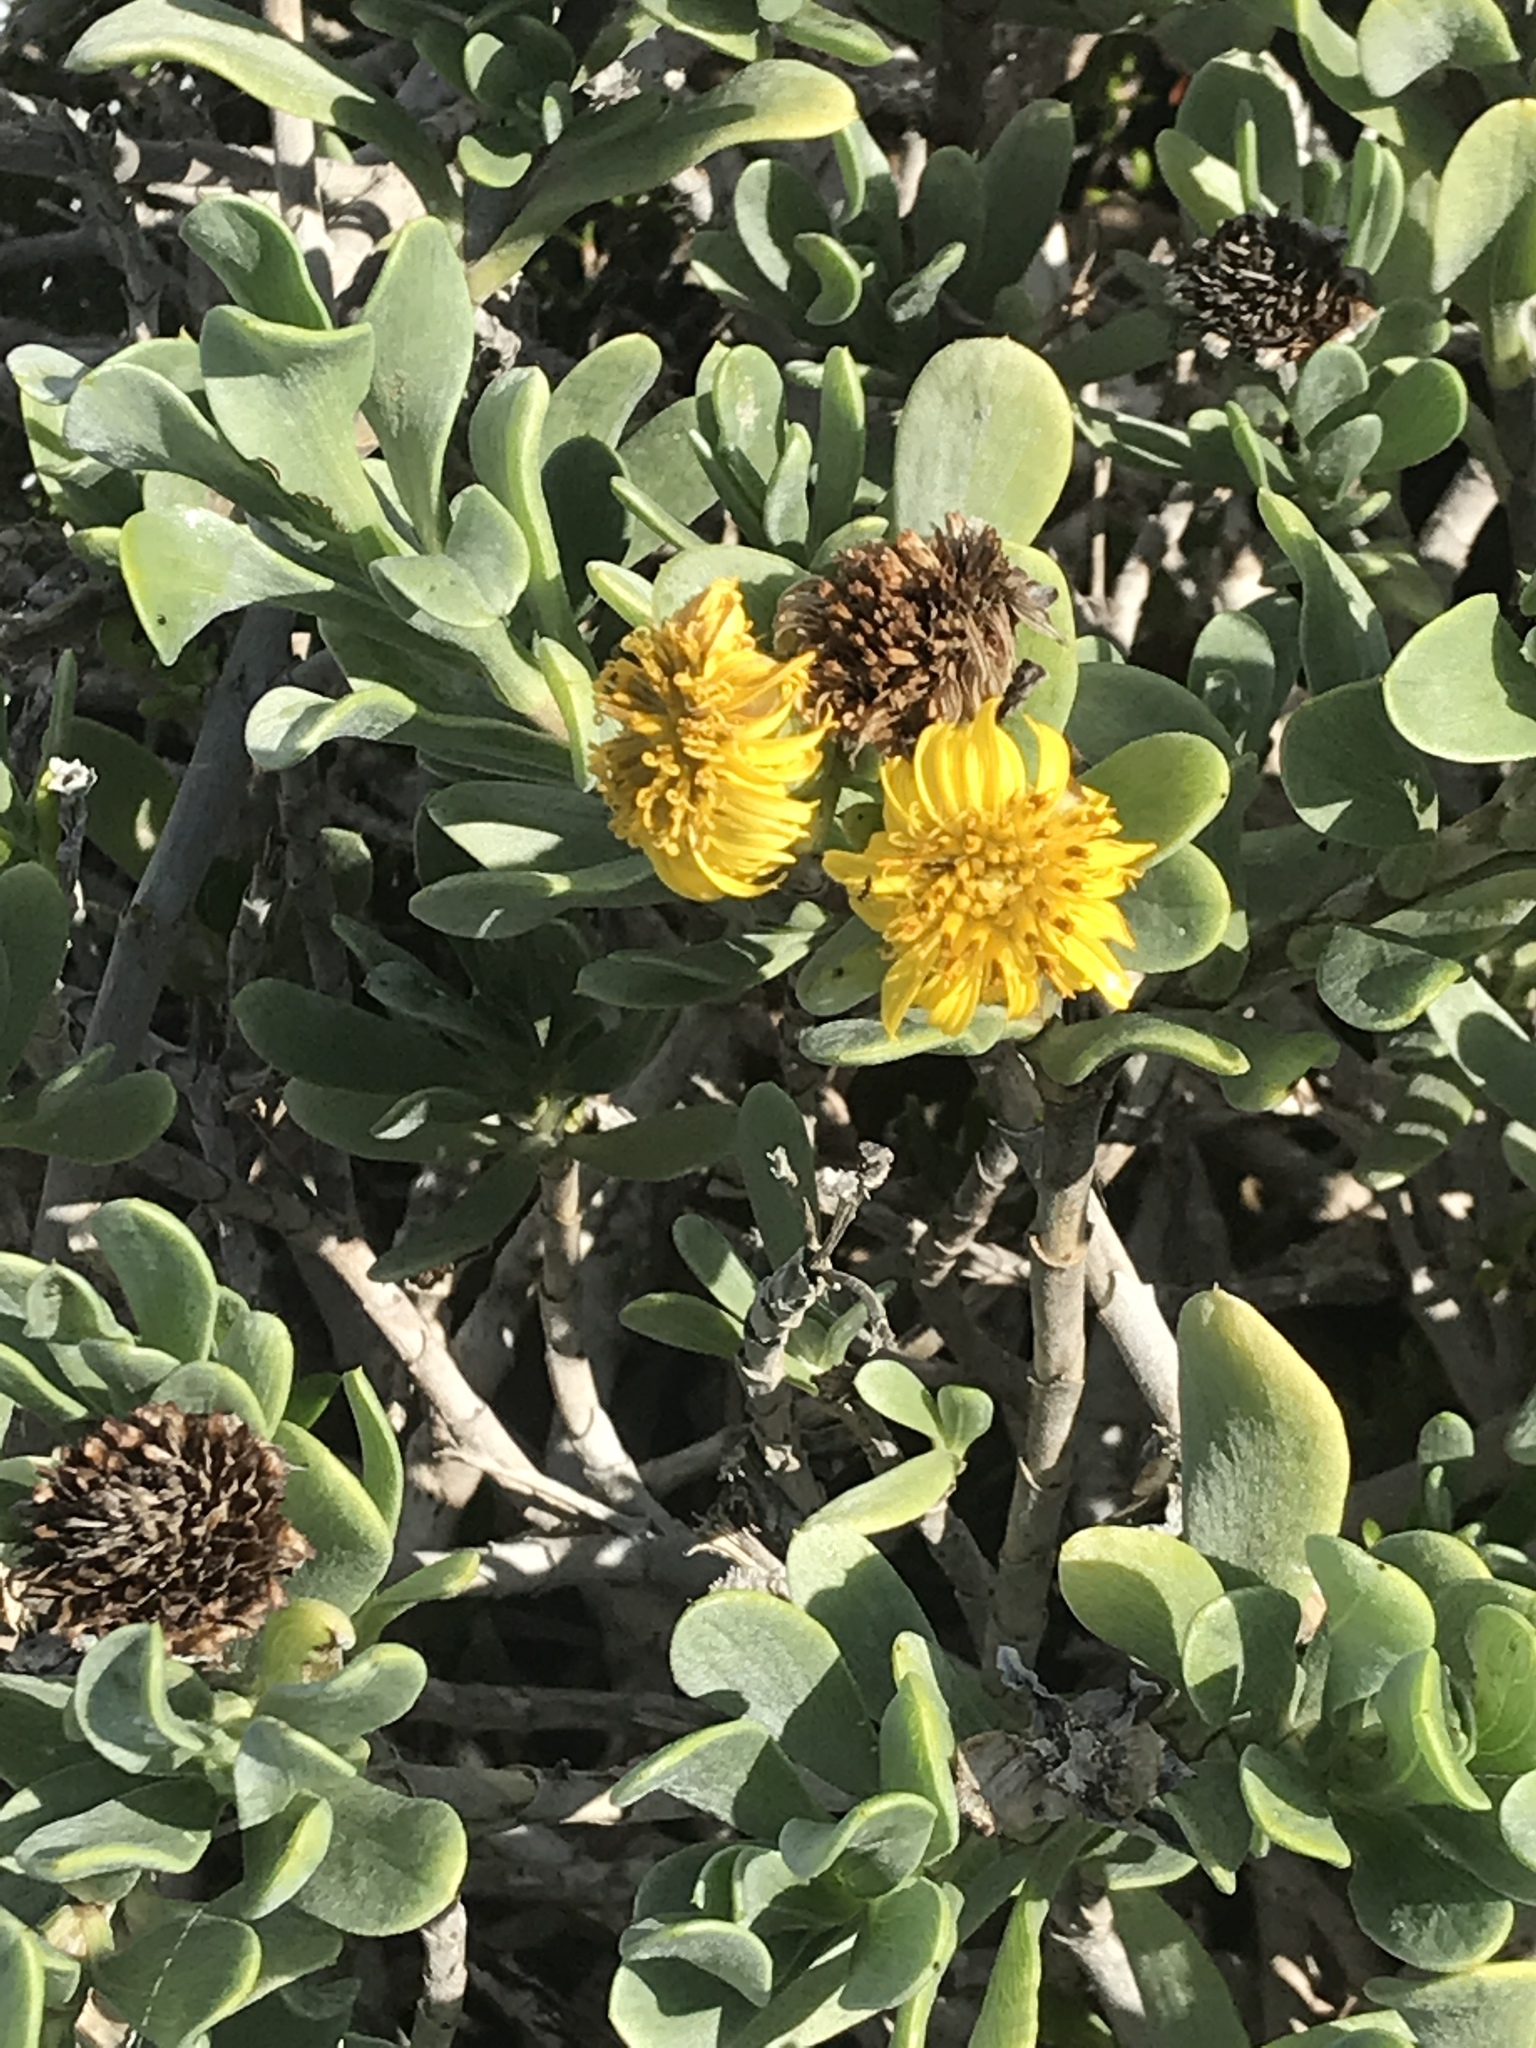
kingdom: Plantae
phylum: Tracheophyta
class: Magnoliopsida
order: Asterales
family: Asteraceae
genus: Borrichia
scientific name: Borrichia arborescens
